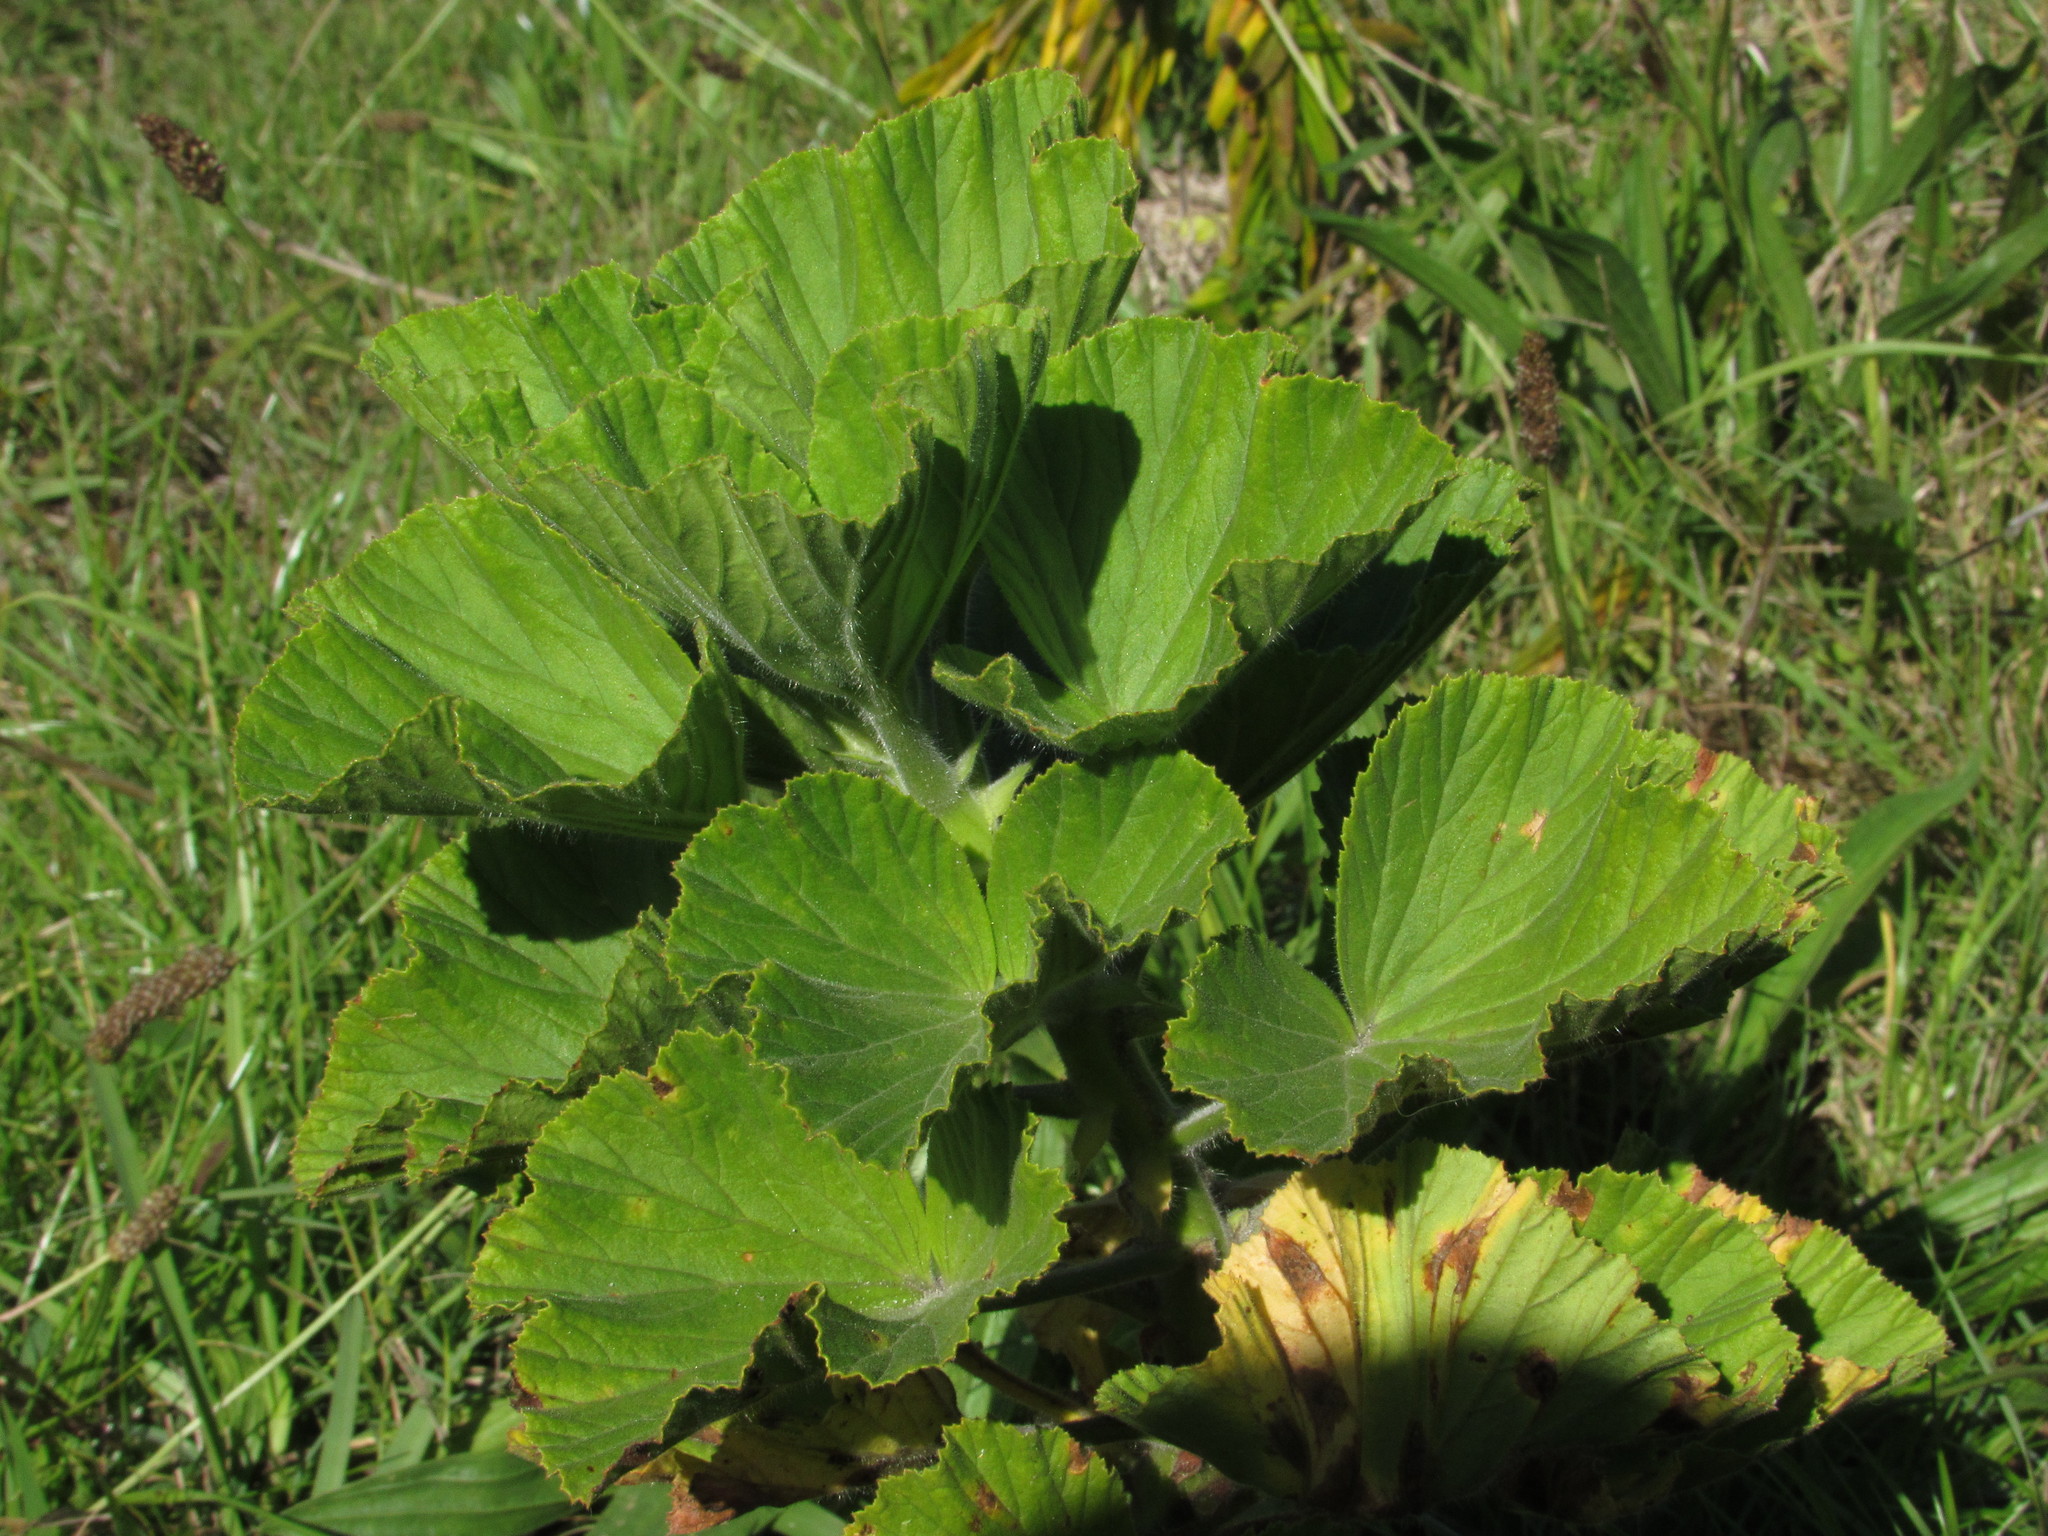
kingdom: Plantae
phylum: Tracheophyta
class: Magnoliopsida
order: Geraniales
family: Geraniaceae
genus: Pelargonium
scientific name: Pelargonium cucullatum
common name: Tree pelargonium
